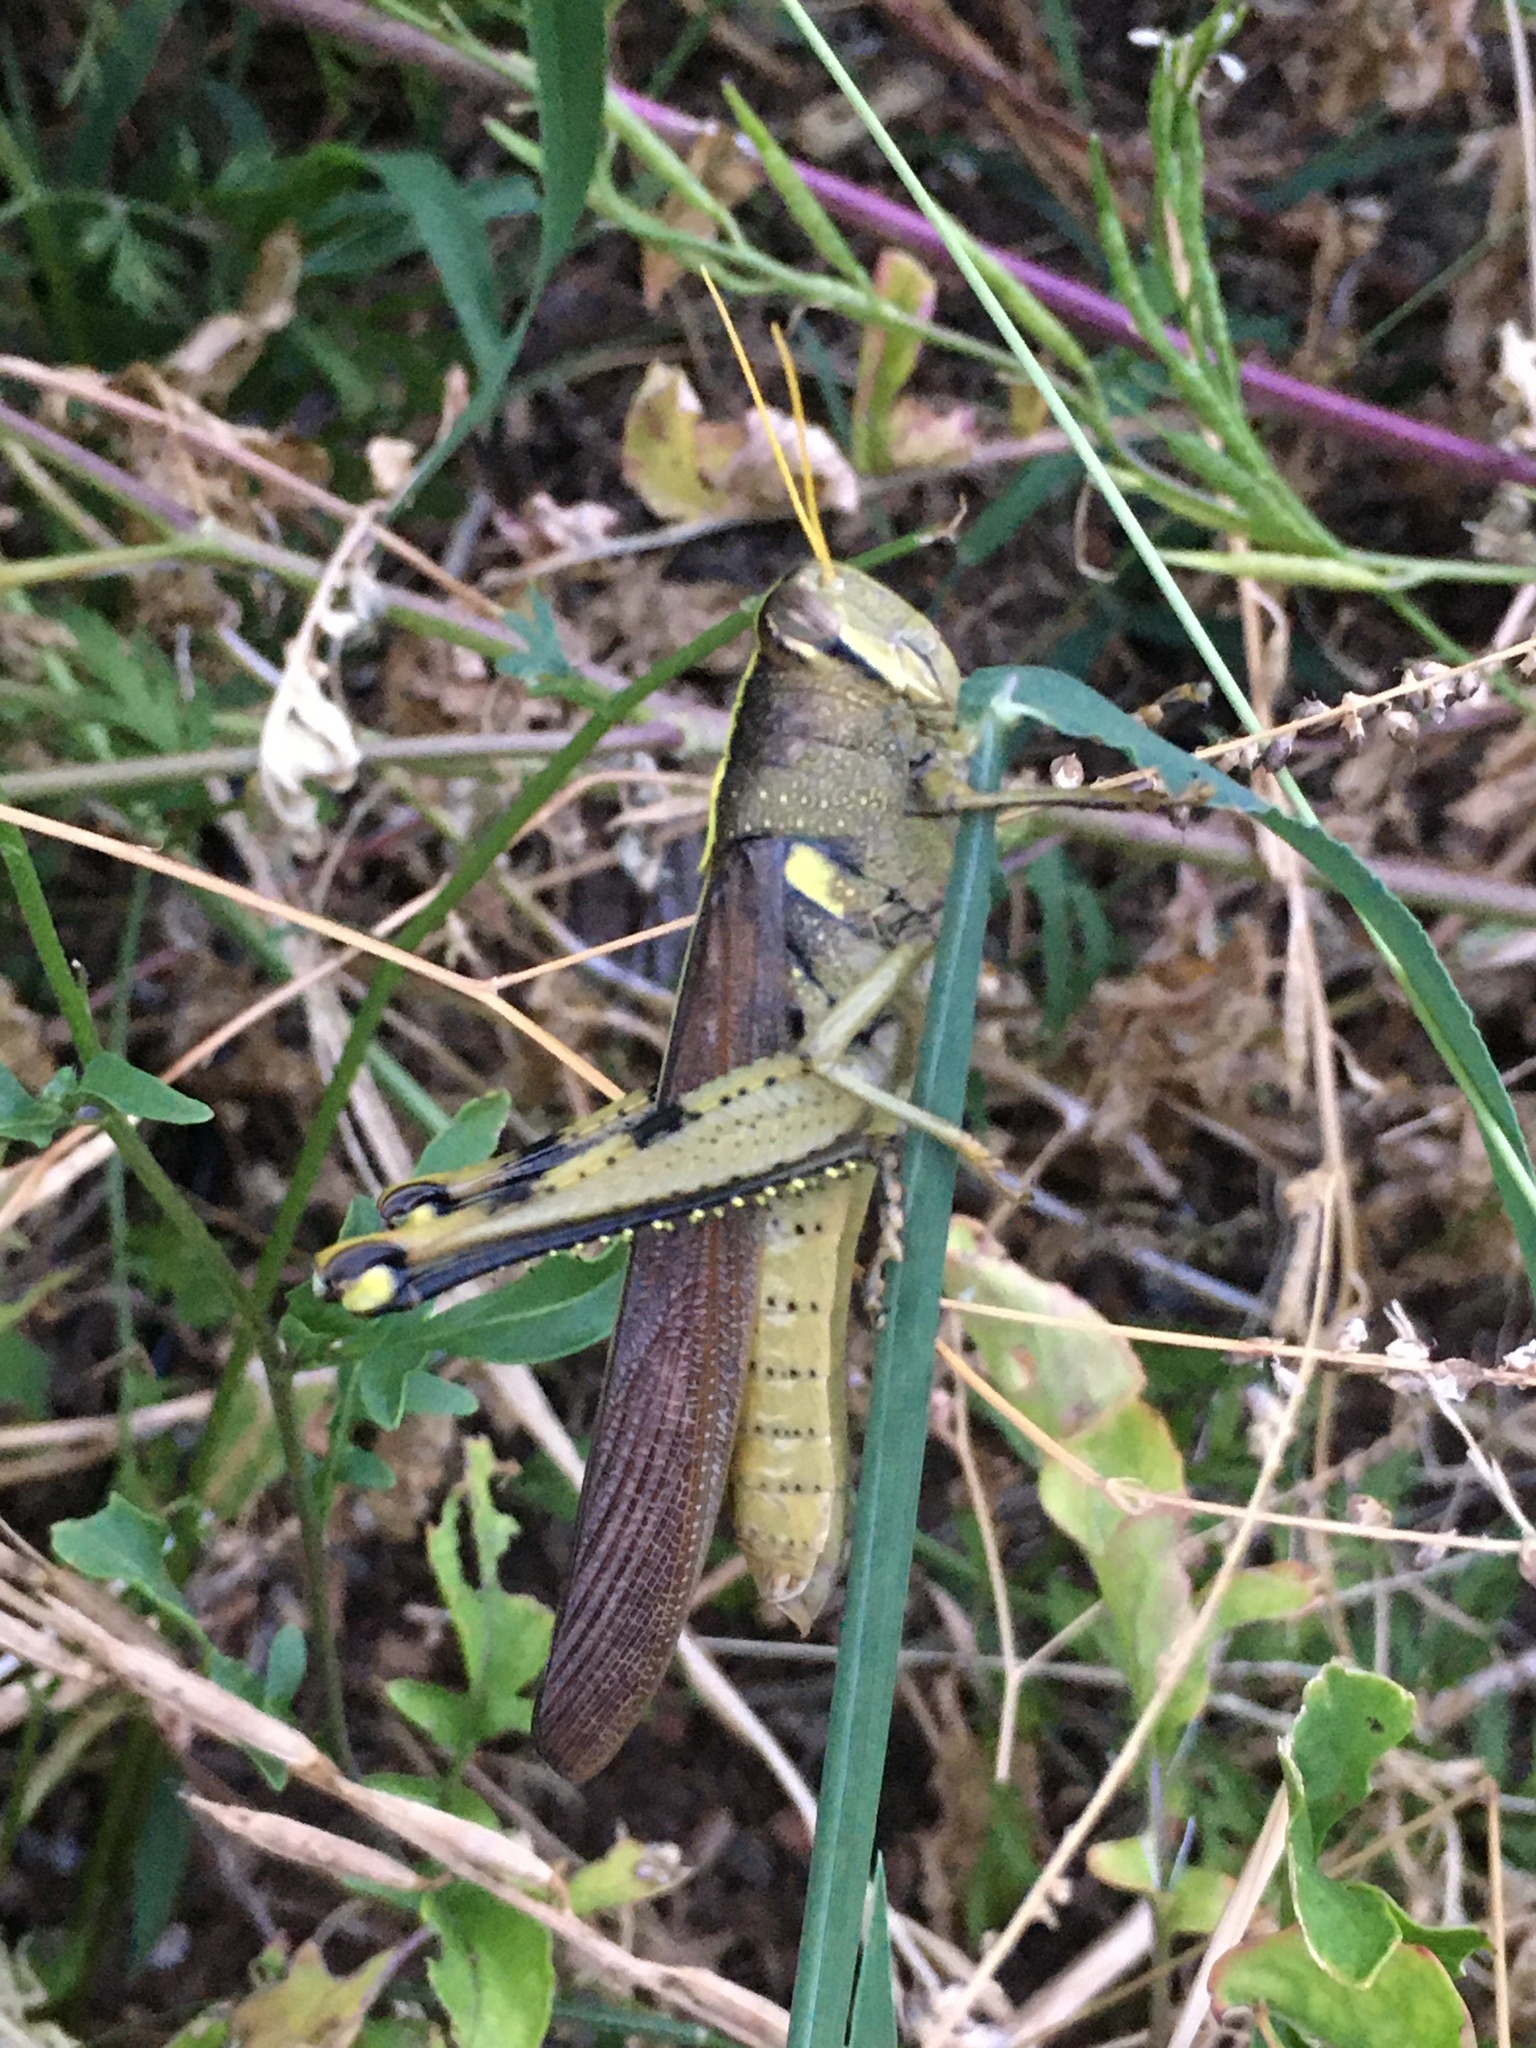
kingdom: Animalia
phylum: Arthropoda
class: Insecta
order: Orthoptera
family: Acrididae
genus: Schistocerca
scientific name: Schistocerca obscura
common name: Obscure bird grasshopper
